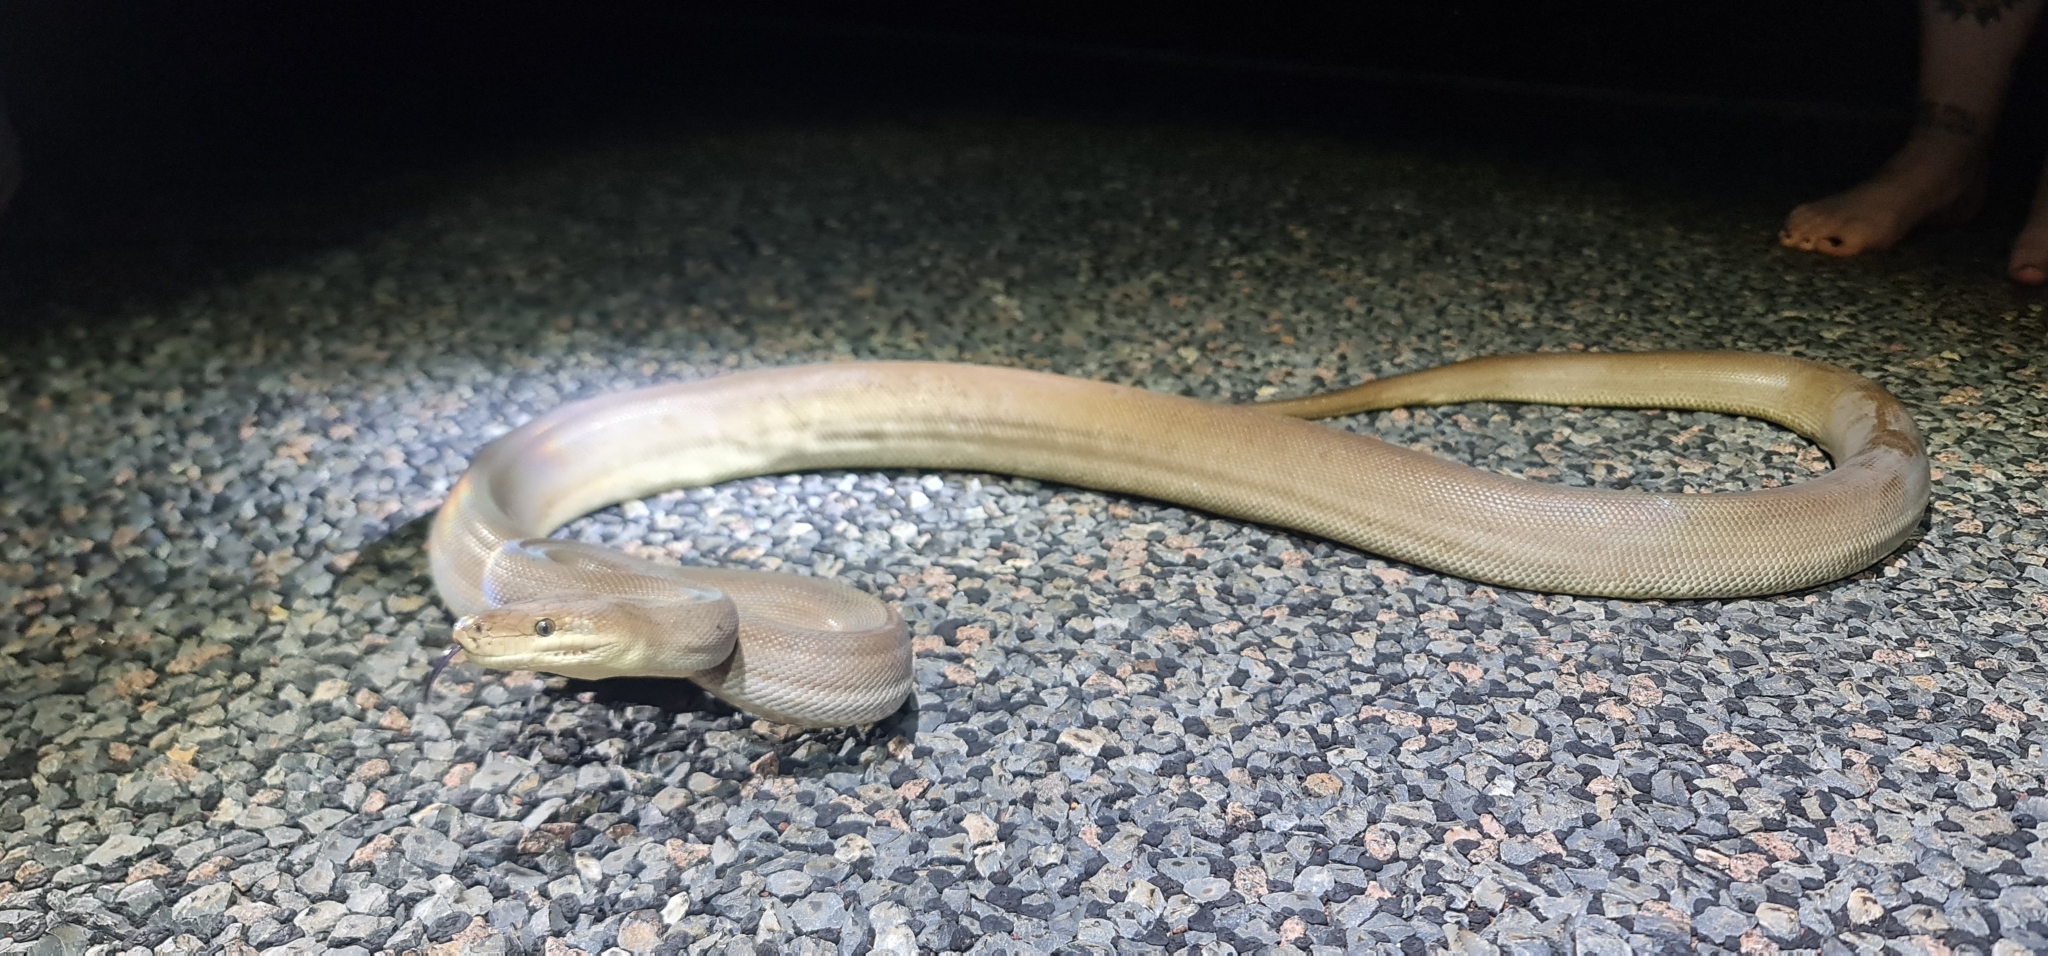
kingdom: Animalia
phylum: Chordata
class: Squamata
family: Pythonidae
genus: Liasis
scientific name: Liasis olivaceus
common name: Olive python
